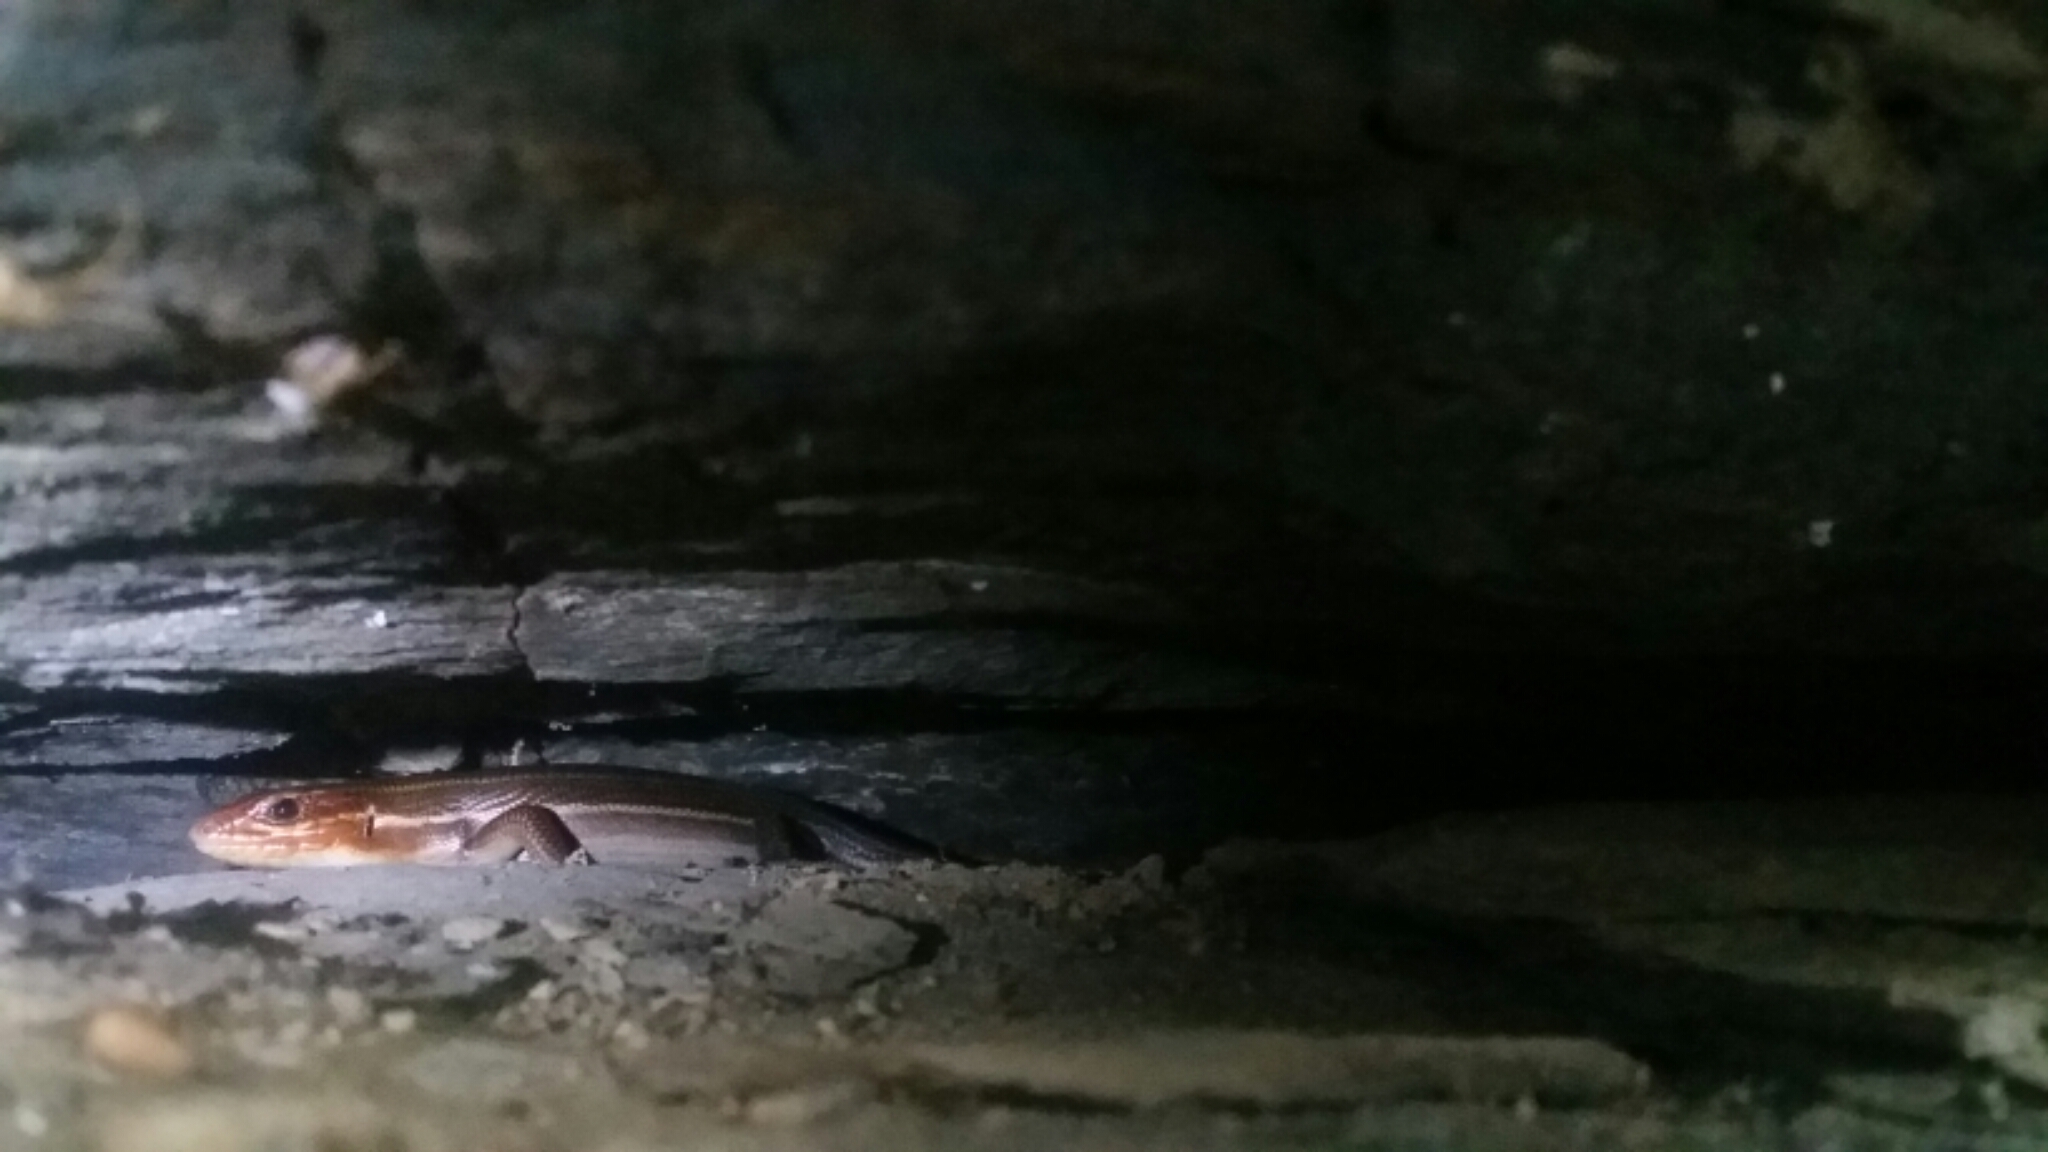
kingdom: Animalia
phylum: Chordata
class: Squamata
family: Scincidae
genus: Plestiodon
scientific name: Plestiodon laticeps
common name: Broadhead skink
